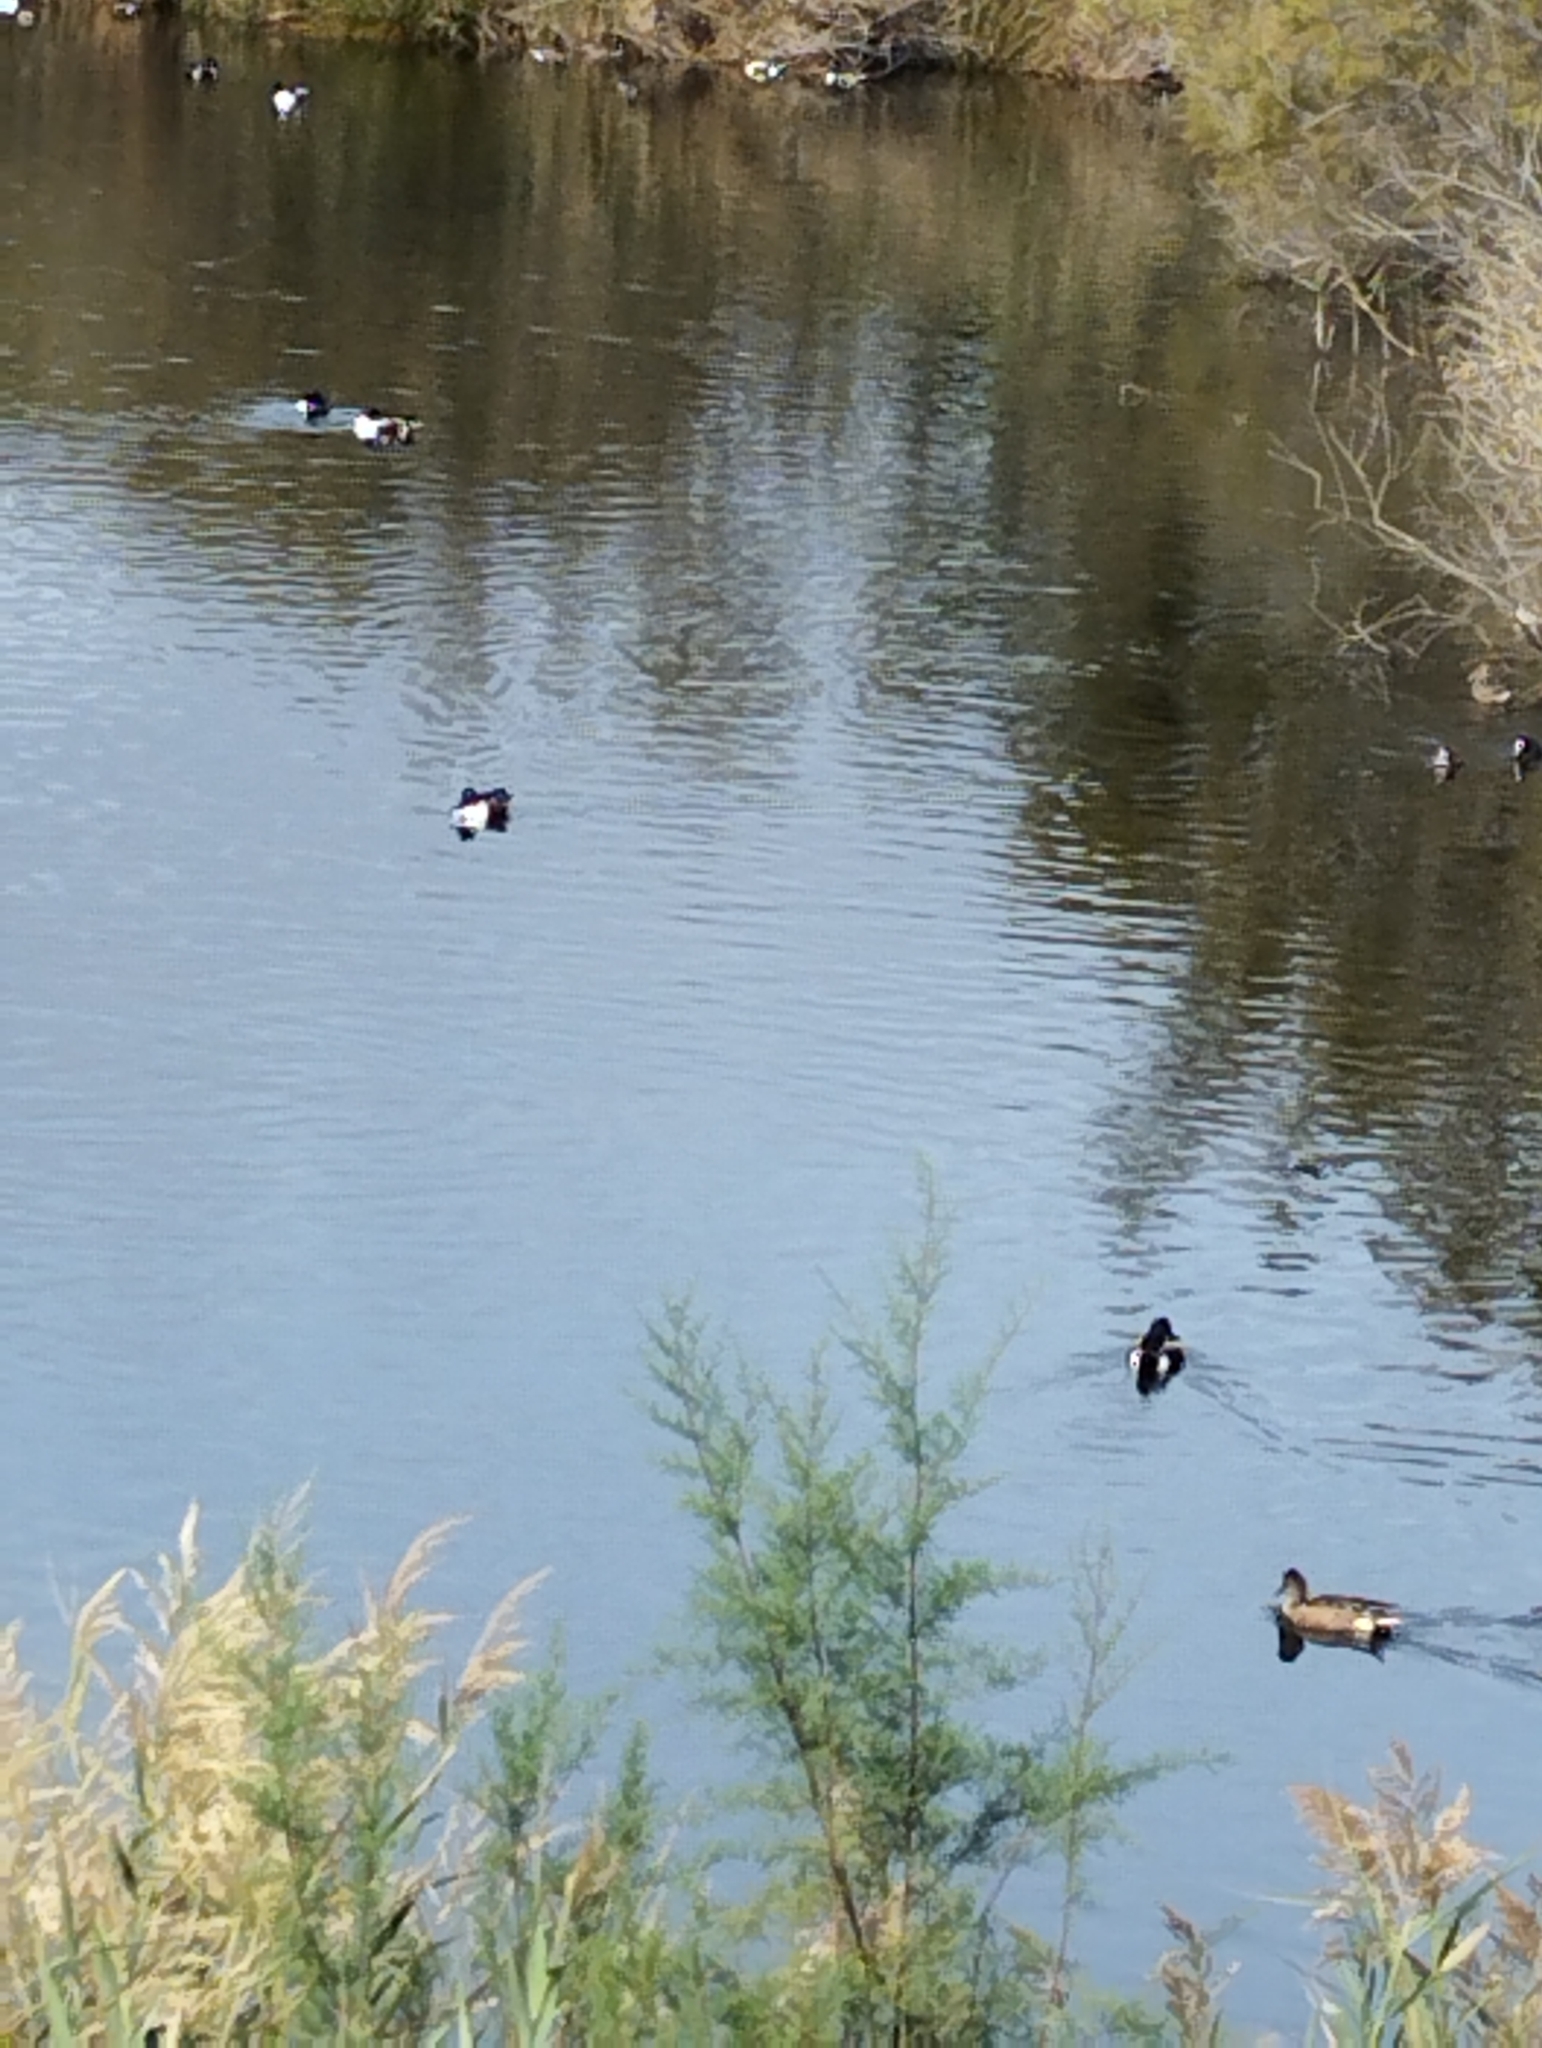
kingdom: Animalia
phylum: Chordata
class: Aves
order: Anseriformes
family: Anatidae
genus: Spatula
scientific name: Spatula clypeata
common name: Northern shoveler
